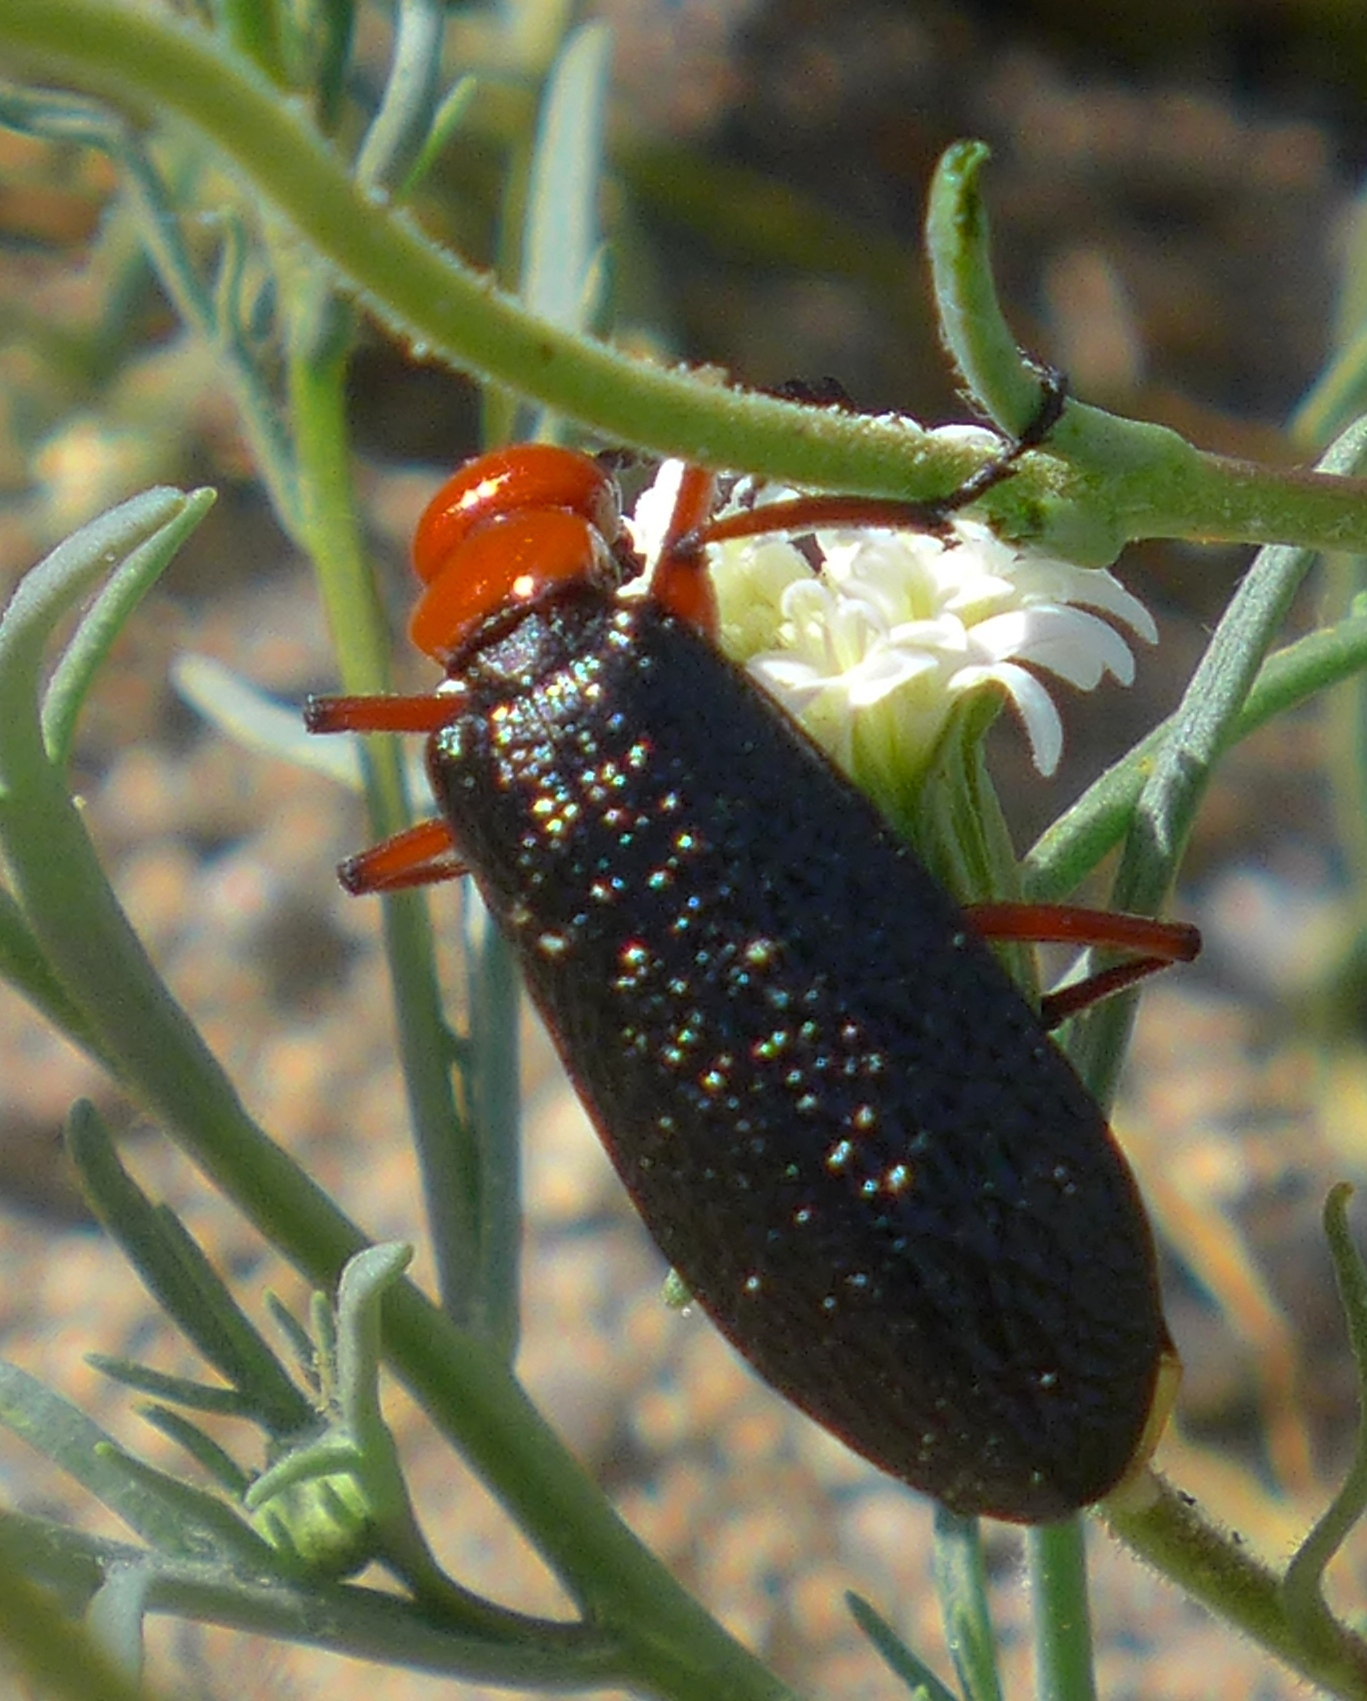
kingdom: Animalia
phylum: Arthropoda
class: Insecta
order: Coleoptera
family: Meloidae
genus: Lytta
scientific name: Lytta magister
